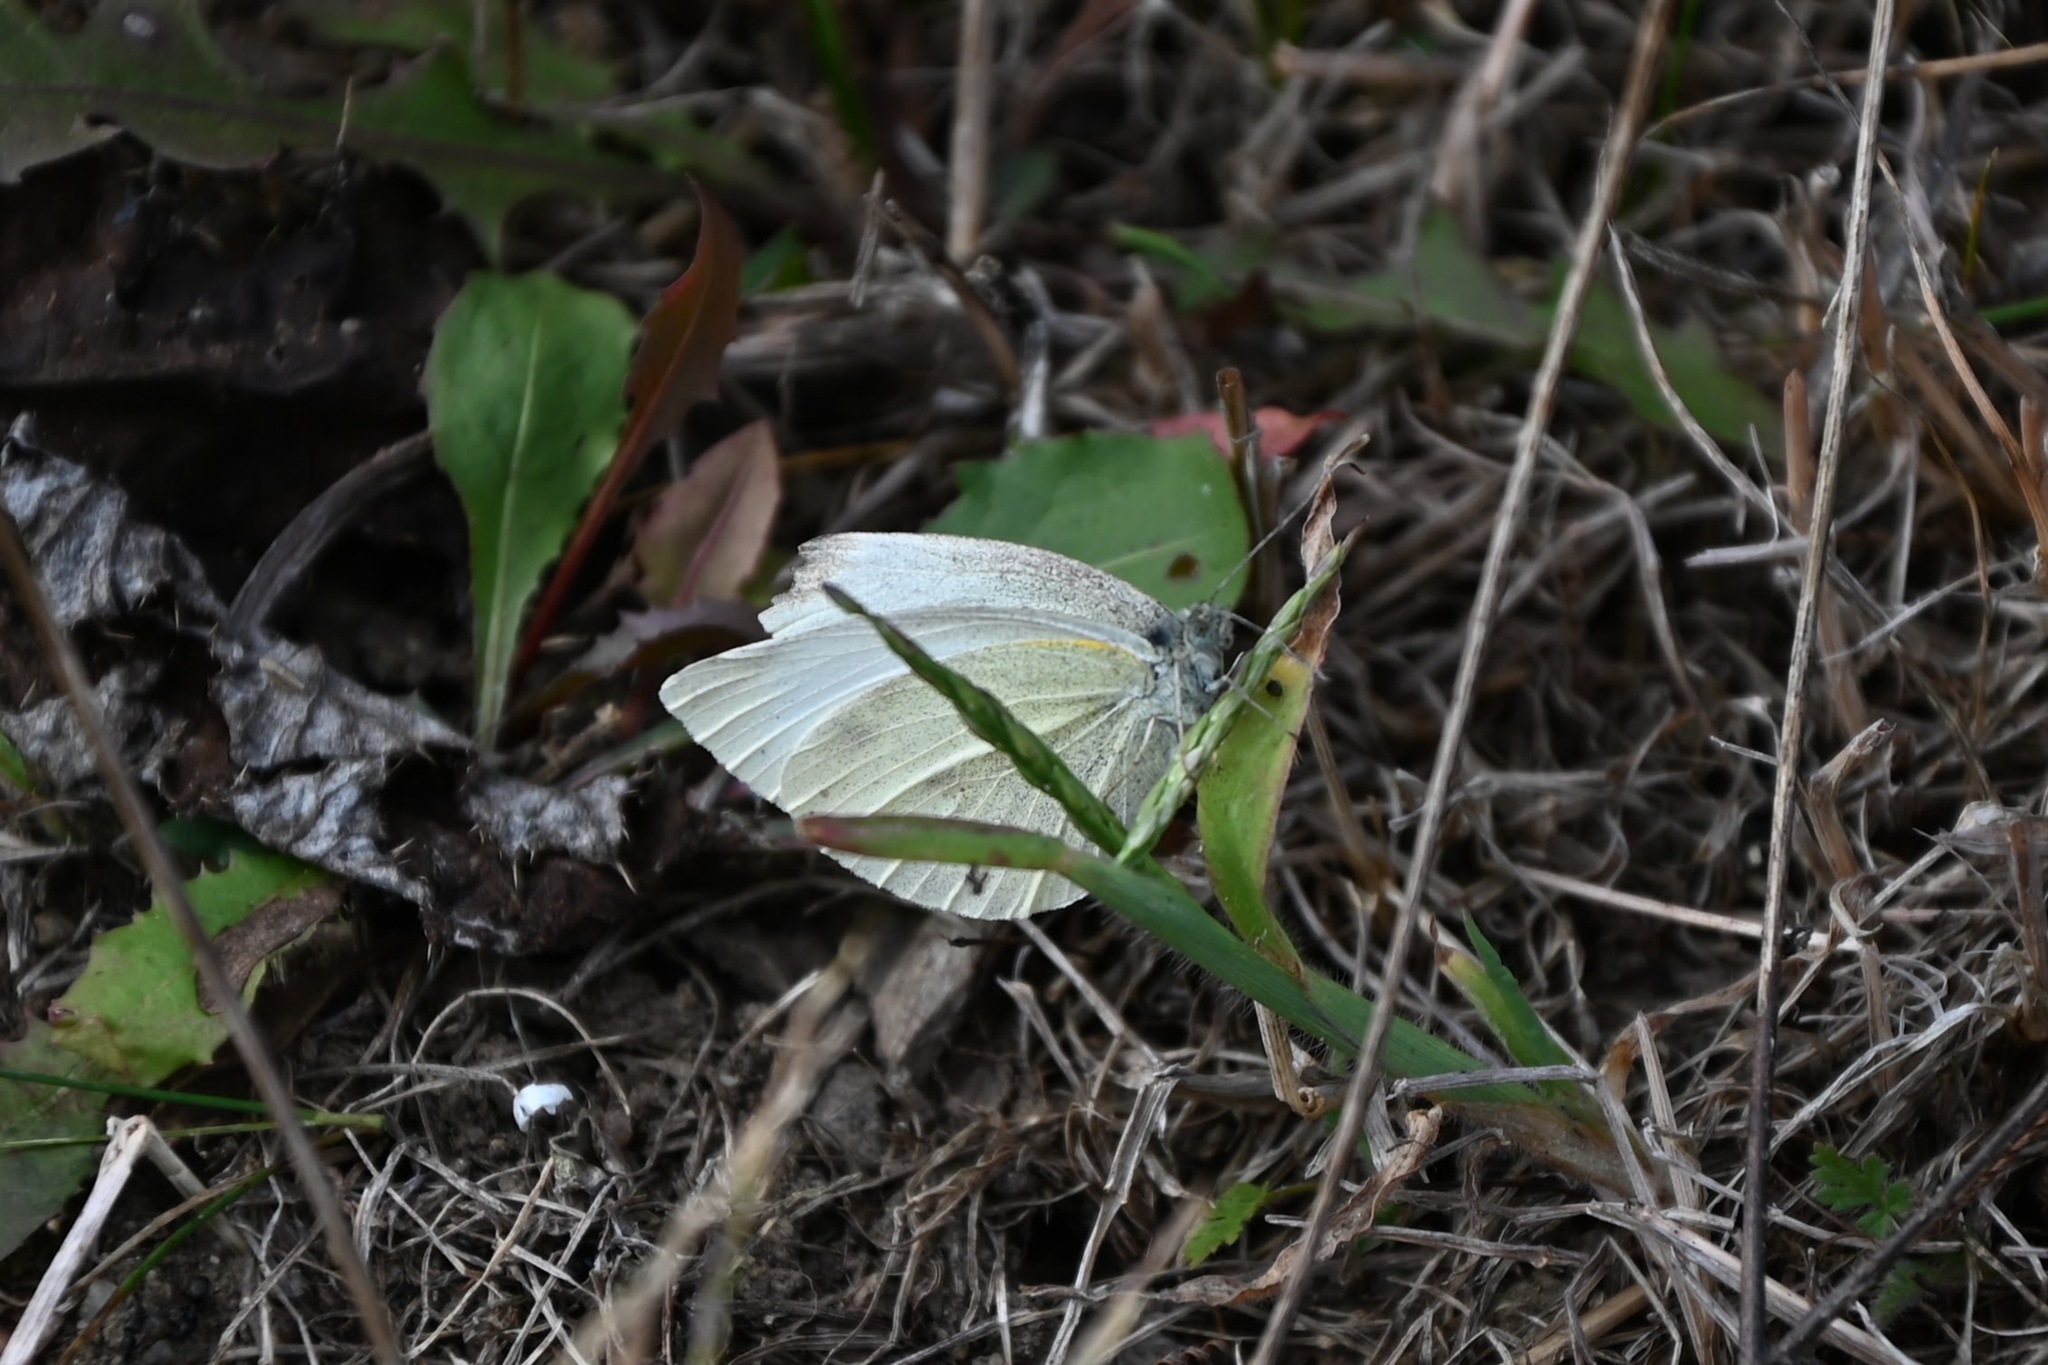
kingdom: Animalia
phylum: Arthropoda
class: Insecta
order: Lepidoptera
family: Pieridae
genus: Pieris
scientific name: Pieris rapae
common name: Small white
